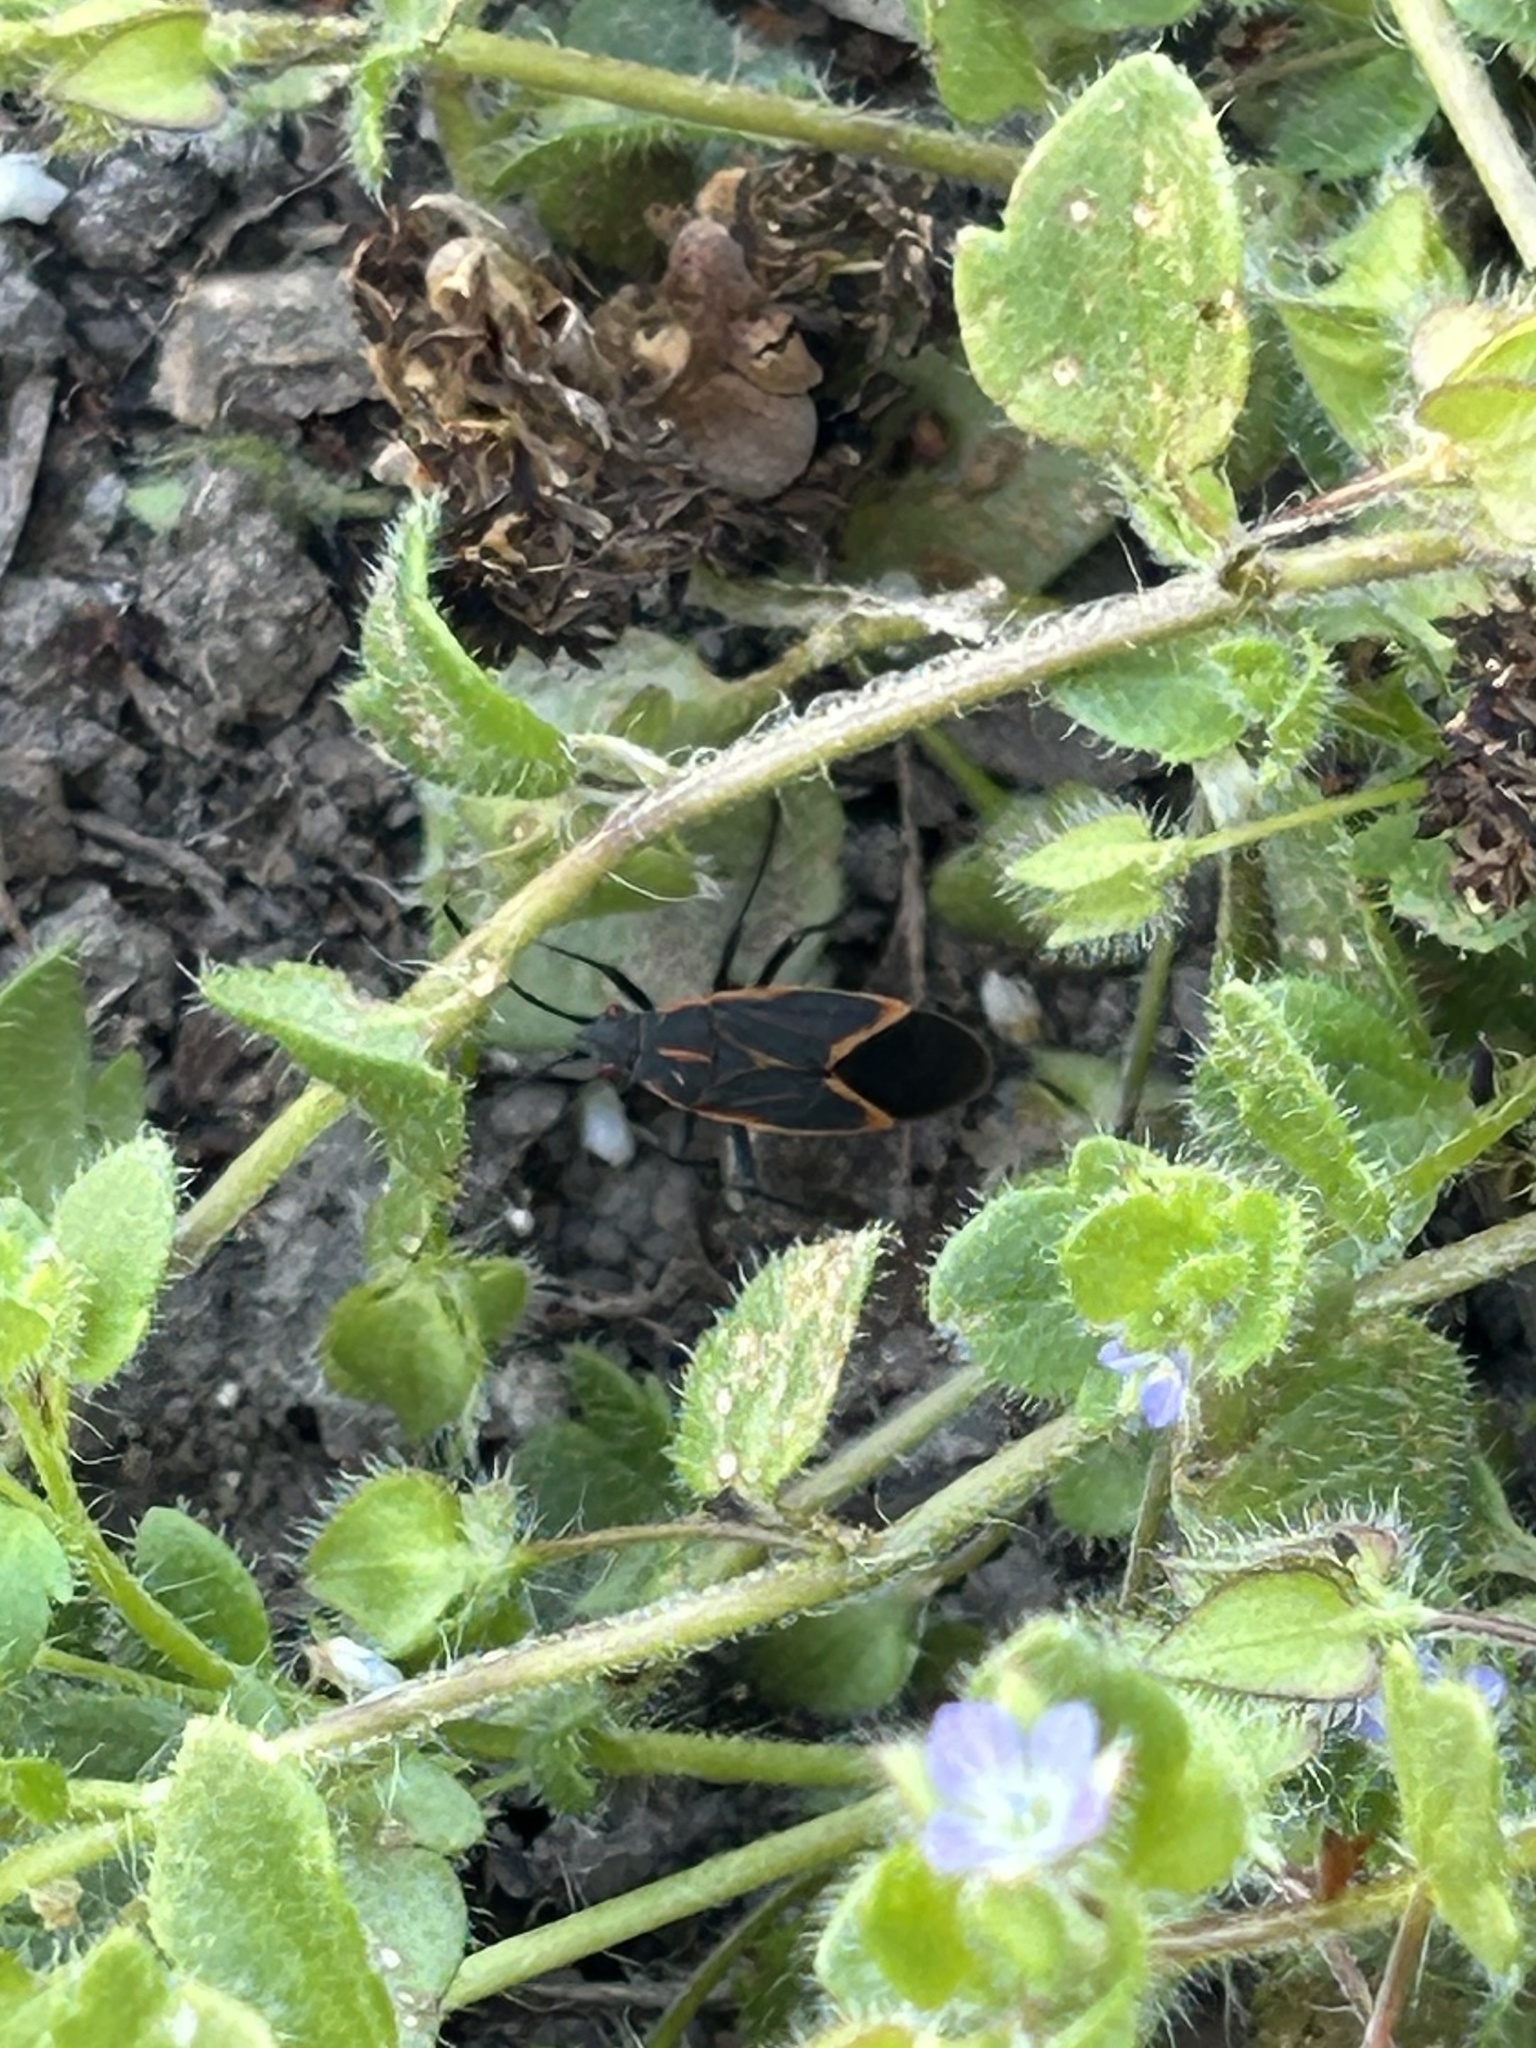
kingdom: Animalia
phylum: Arthropoda
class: Insecta
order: Hemiptera
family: Rhopalidae
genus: Boisea
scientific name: Boisea trivittata
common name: Boxelder bug
